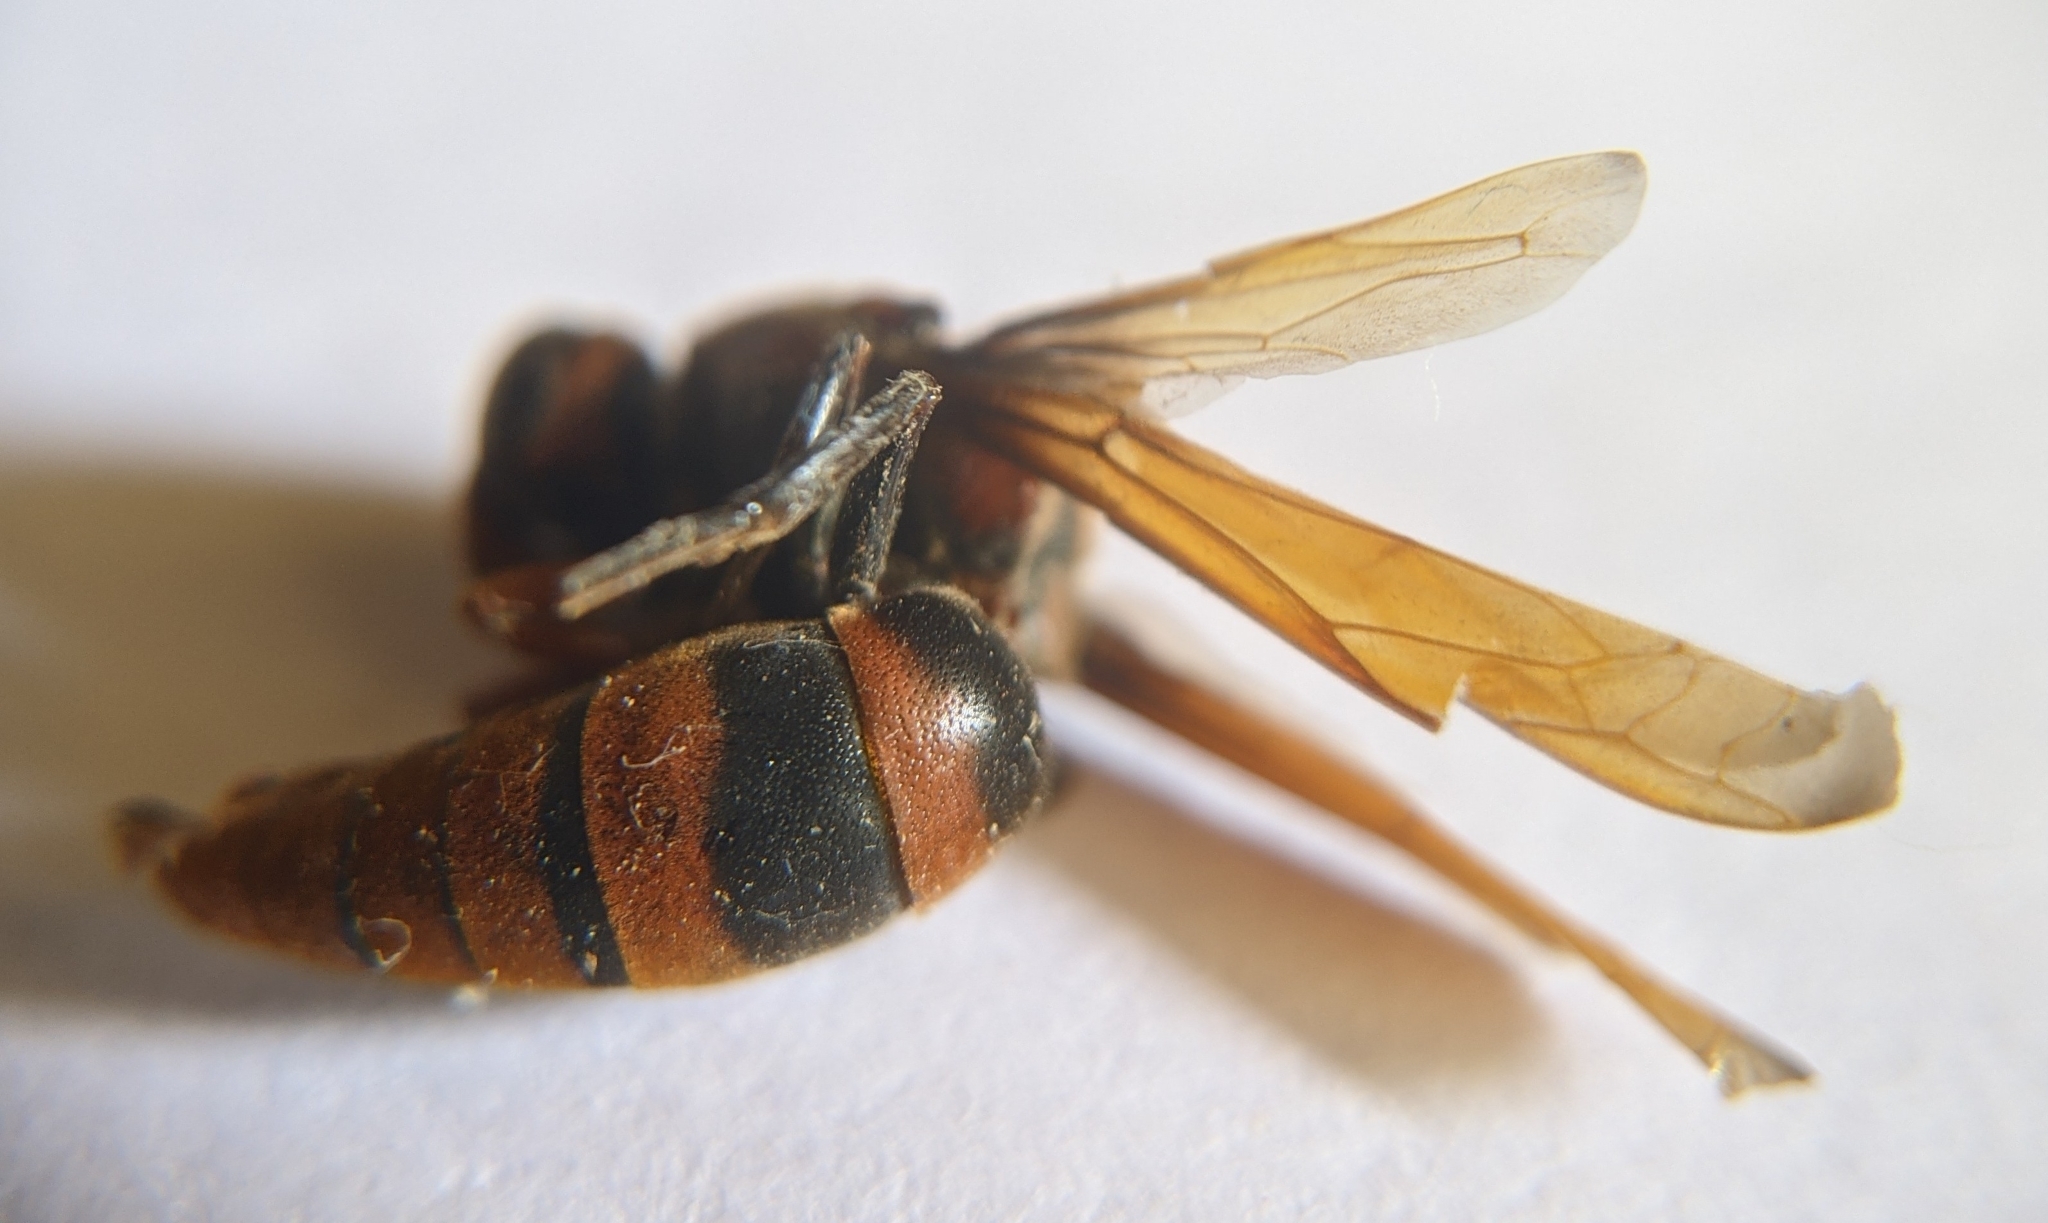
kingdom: Animalia
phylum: Arthropoda
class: Insecta
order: Hymenoptera
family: Eumenidae
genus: Rhynchium
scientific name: Rhynchium brunneum
